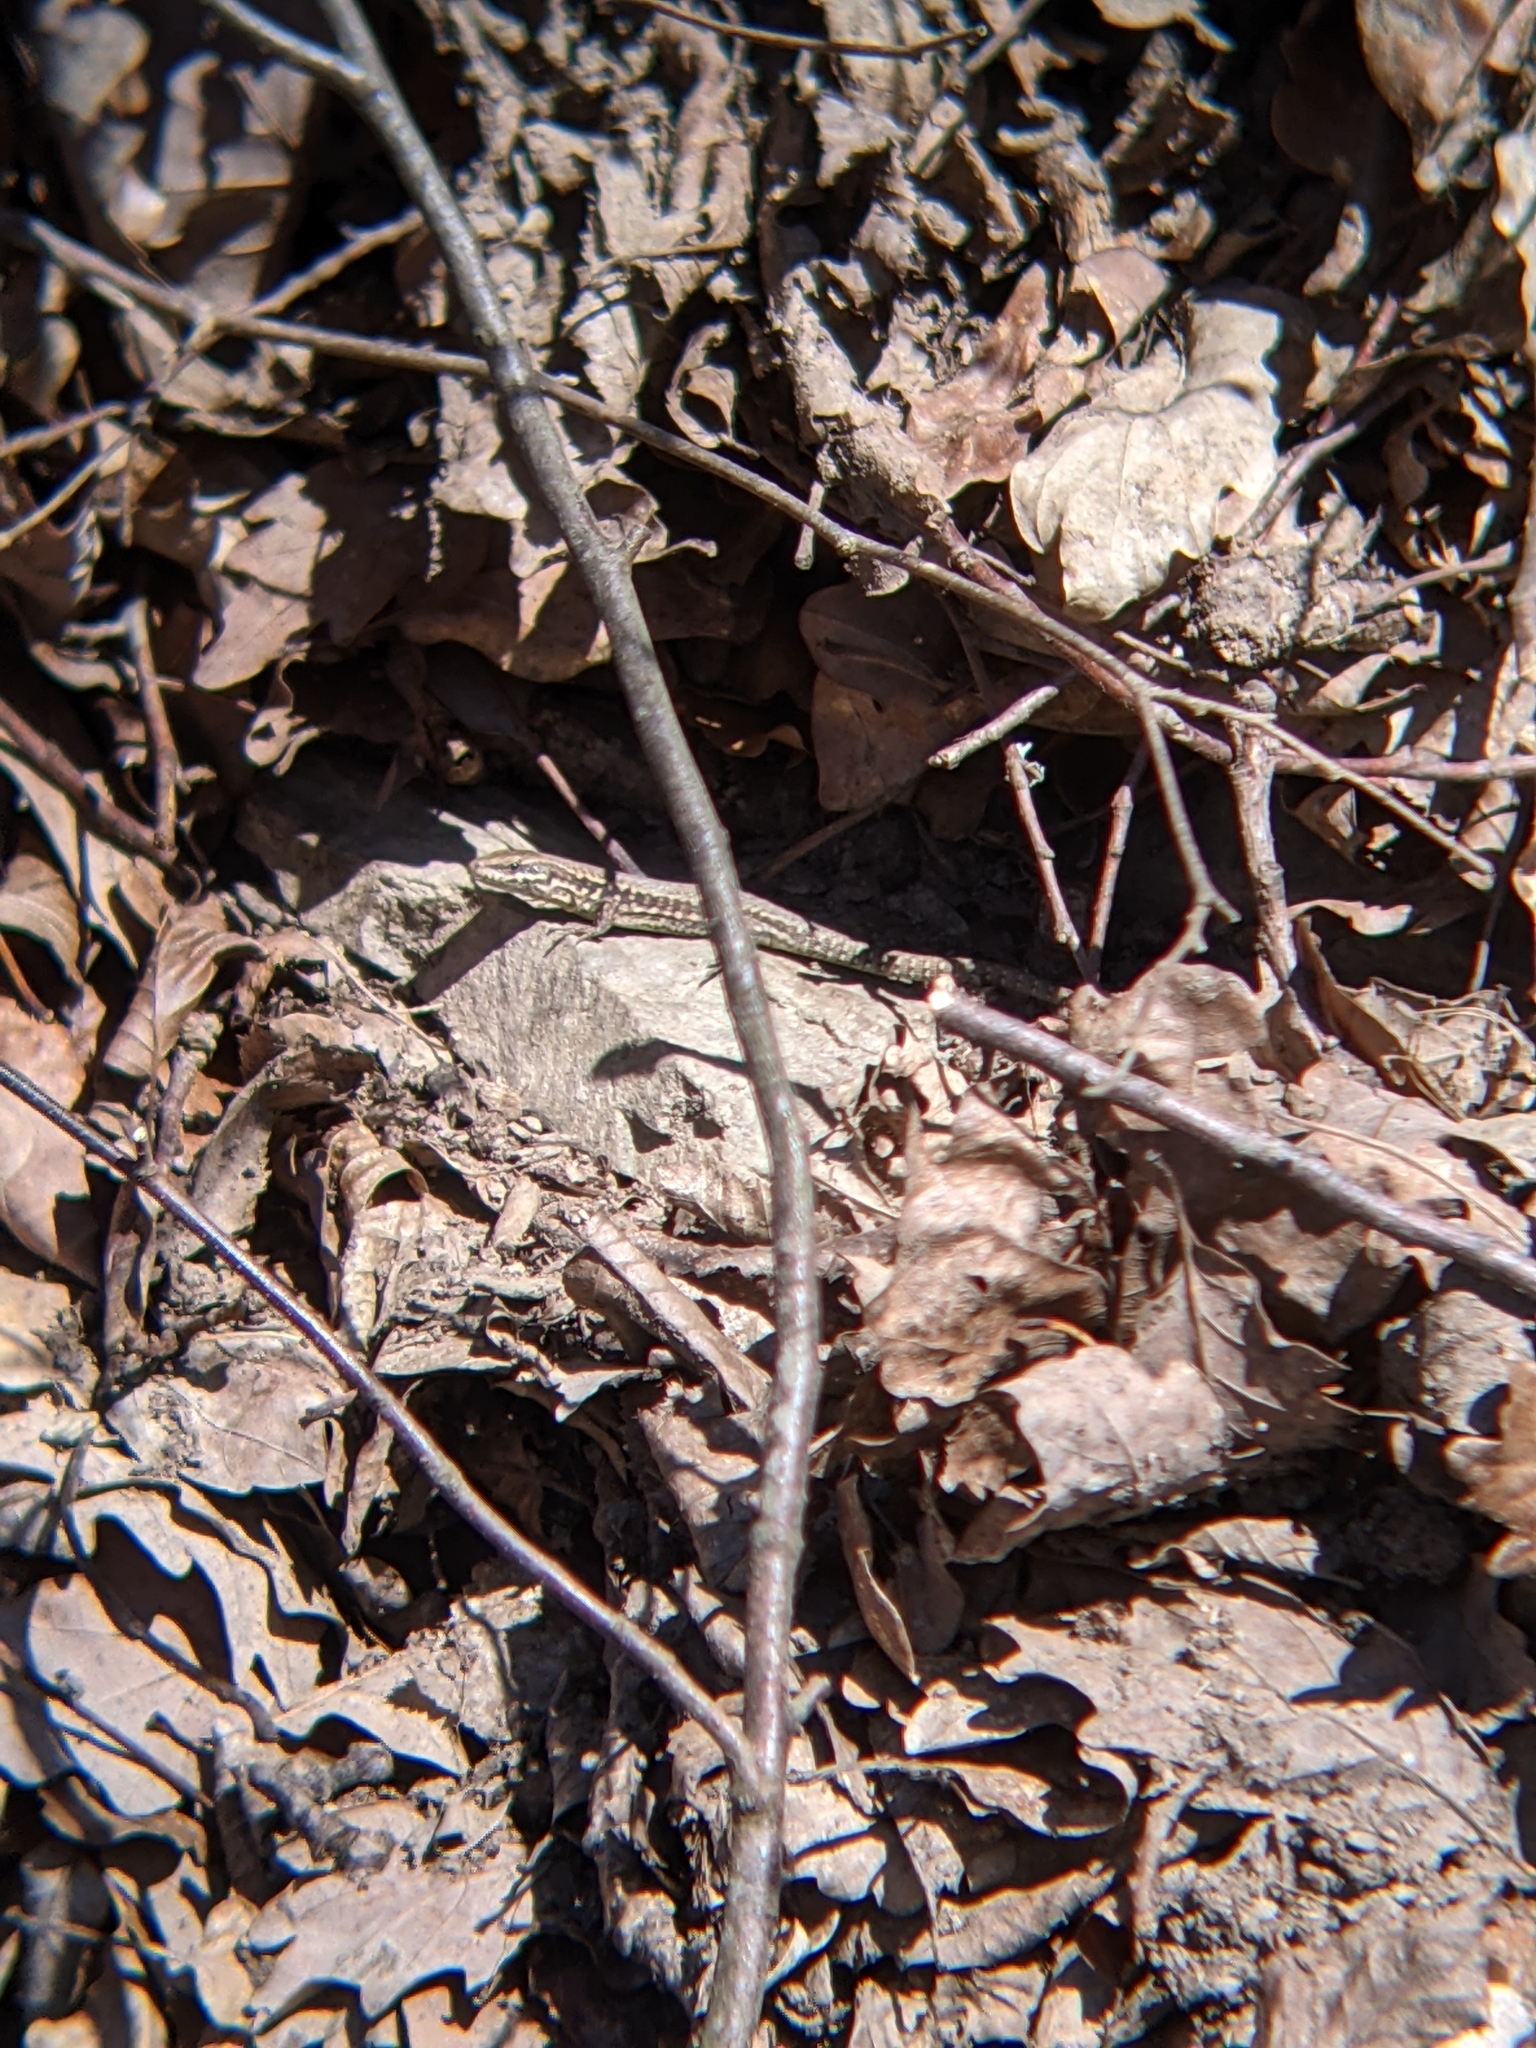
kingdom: Animalia
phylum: Chordata
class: Squamata
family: Lacertidae
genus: Podarcis
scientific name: Podarcis muralis
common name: Common wall lizard
